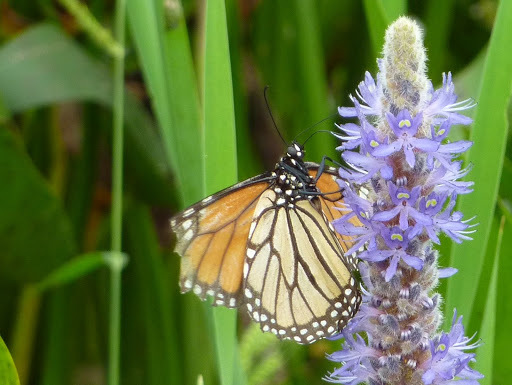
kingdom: Animalia
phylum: Arthropoda
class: Insecta
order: Lepidoptera
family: Nymphalidae
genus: Danaus
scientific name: Danaus plexippus
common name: Monarch
